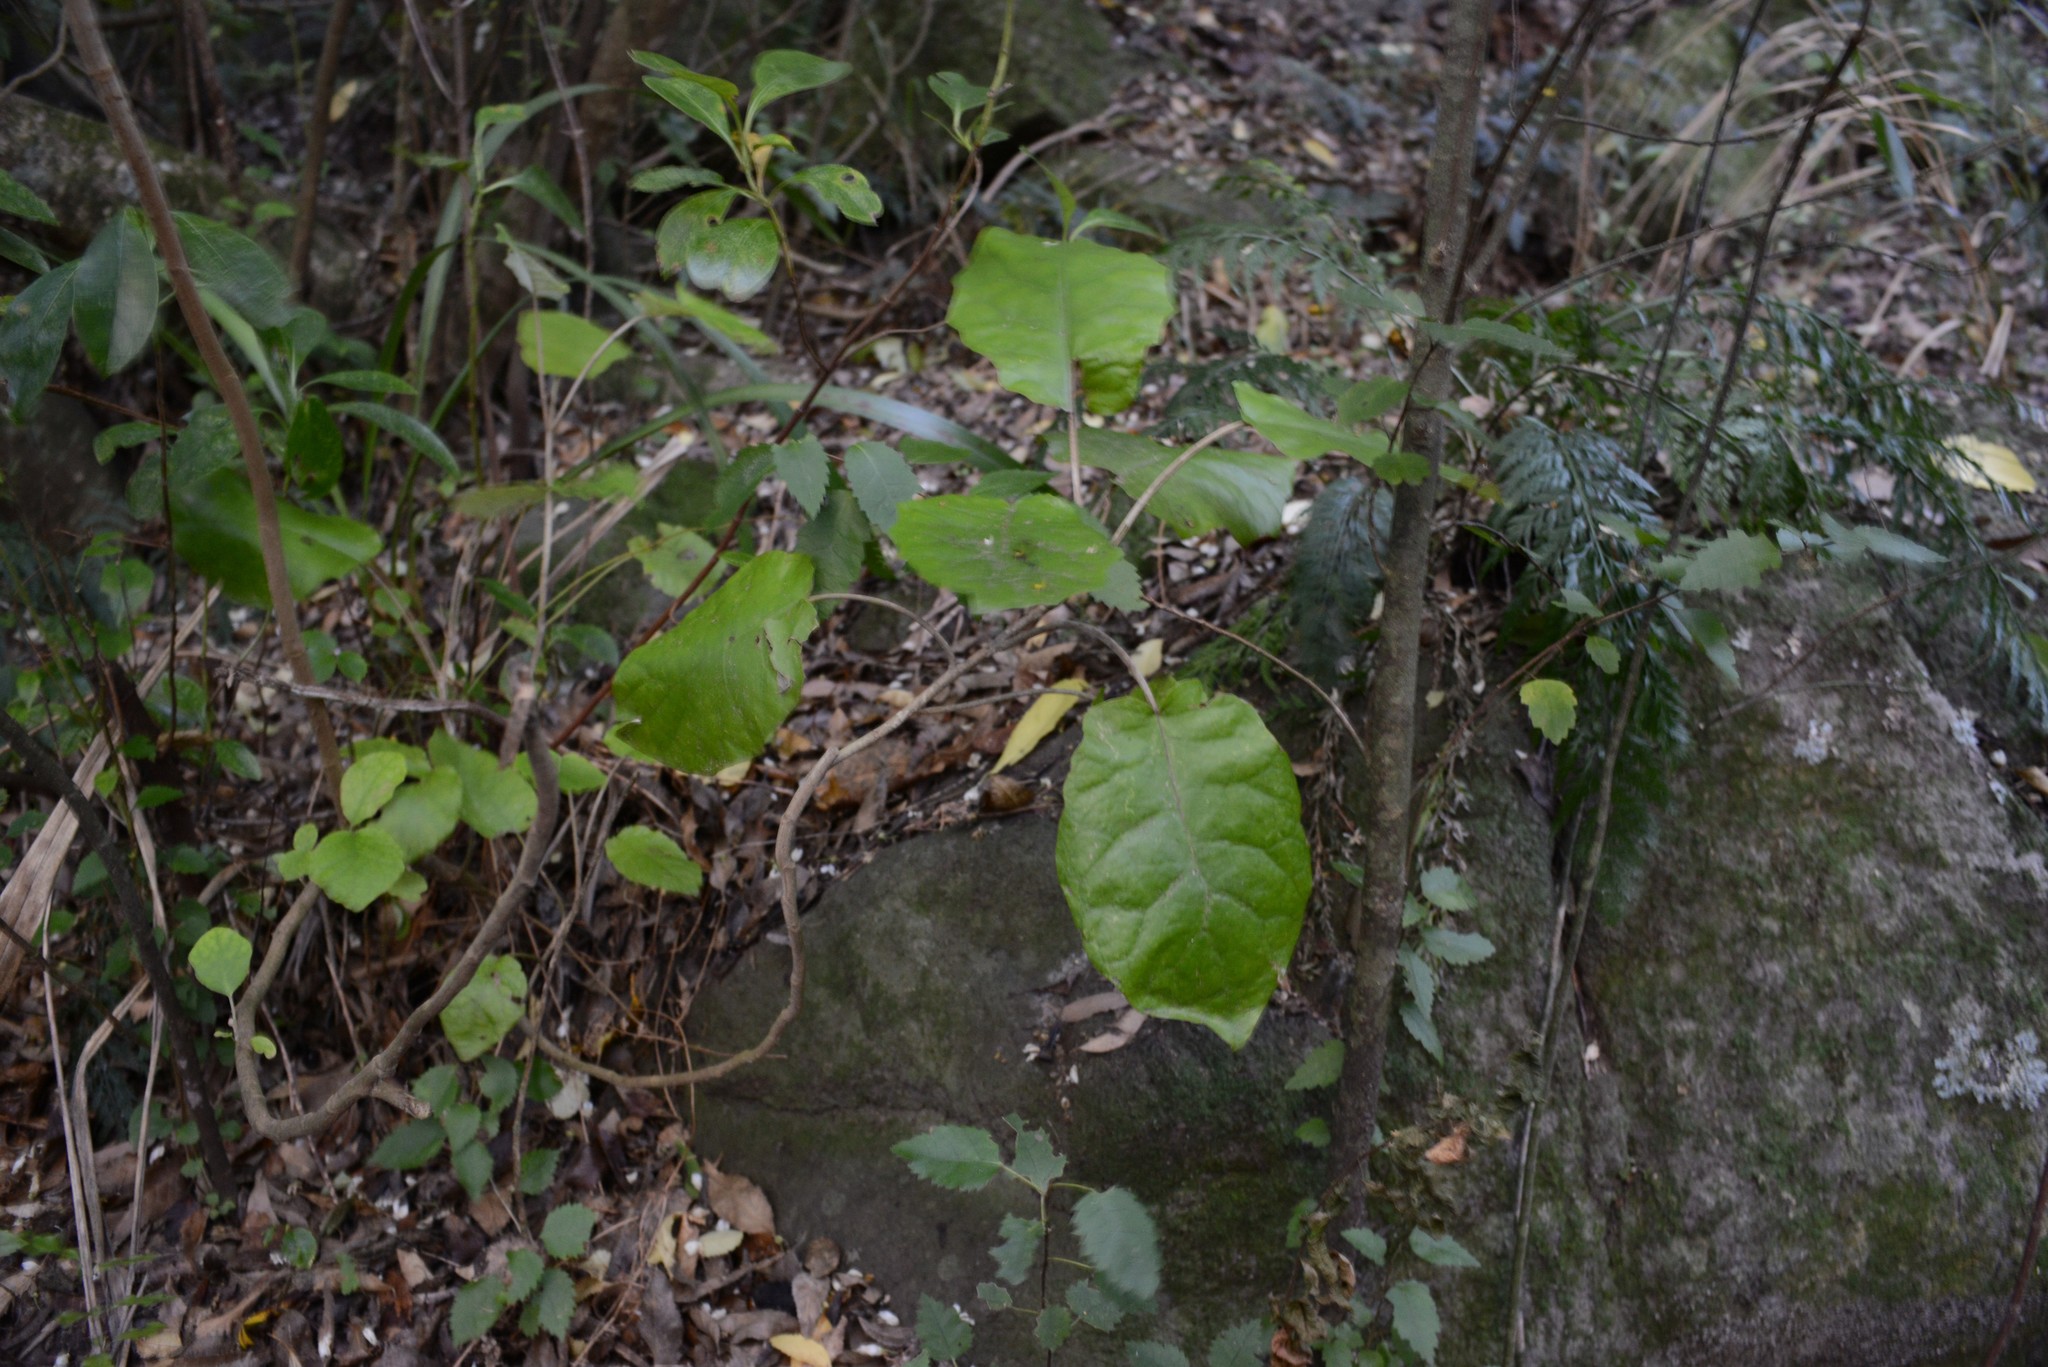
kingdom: Plantae
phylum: Tracheophyta
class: Magnoliopsida
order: Asterales
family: Asteraceae
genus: Brachyglottis
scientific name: Brachyglottis repanda
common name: Hedge ragwort
